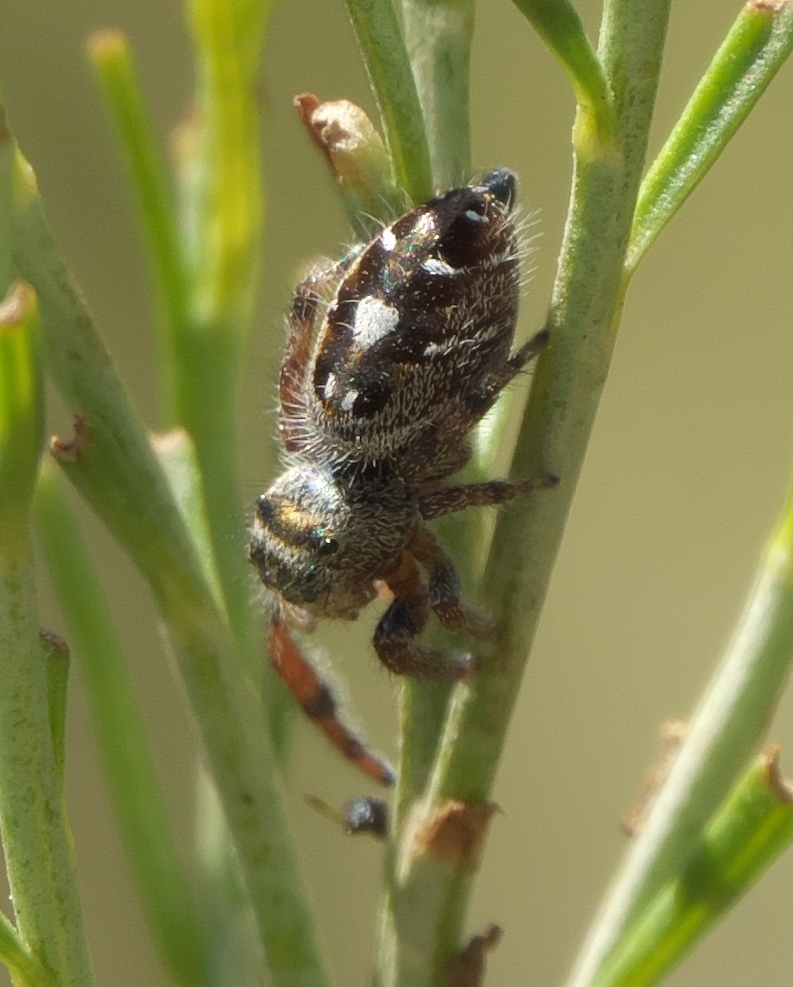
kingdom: Animalia
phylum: Arthropoda
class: Arachnida
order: Araneae
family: Salticidae
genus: Phidippus
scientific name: Phidippus audax
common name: Bold jumper
